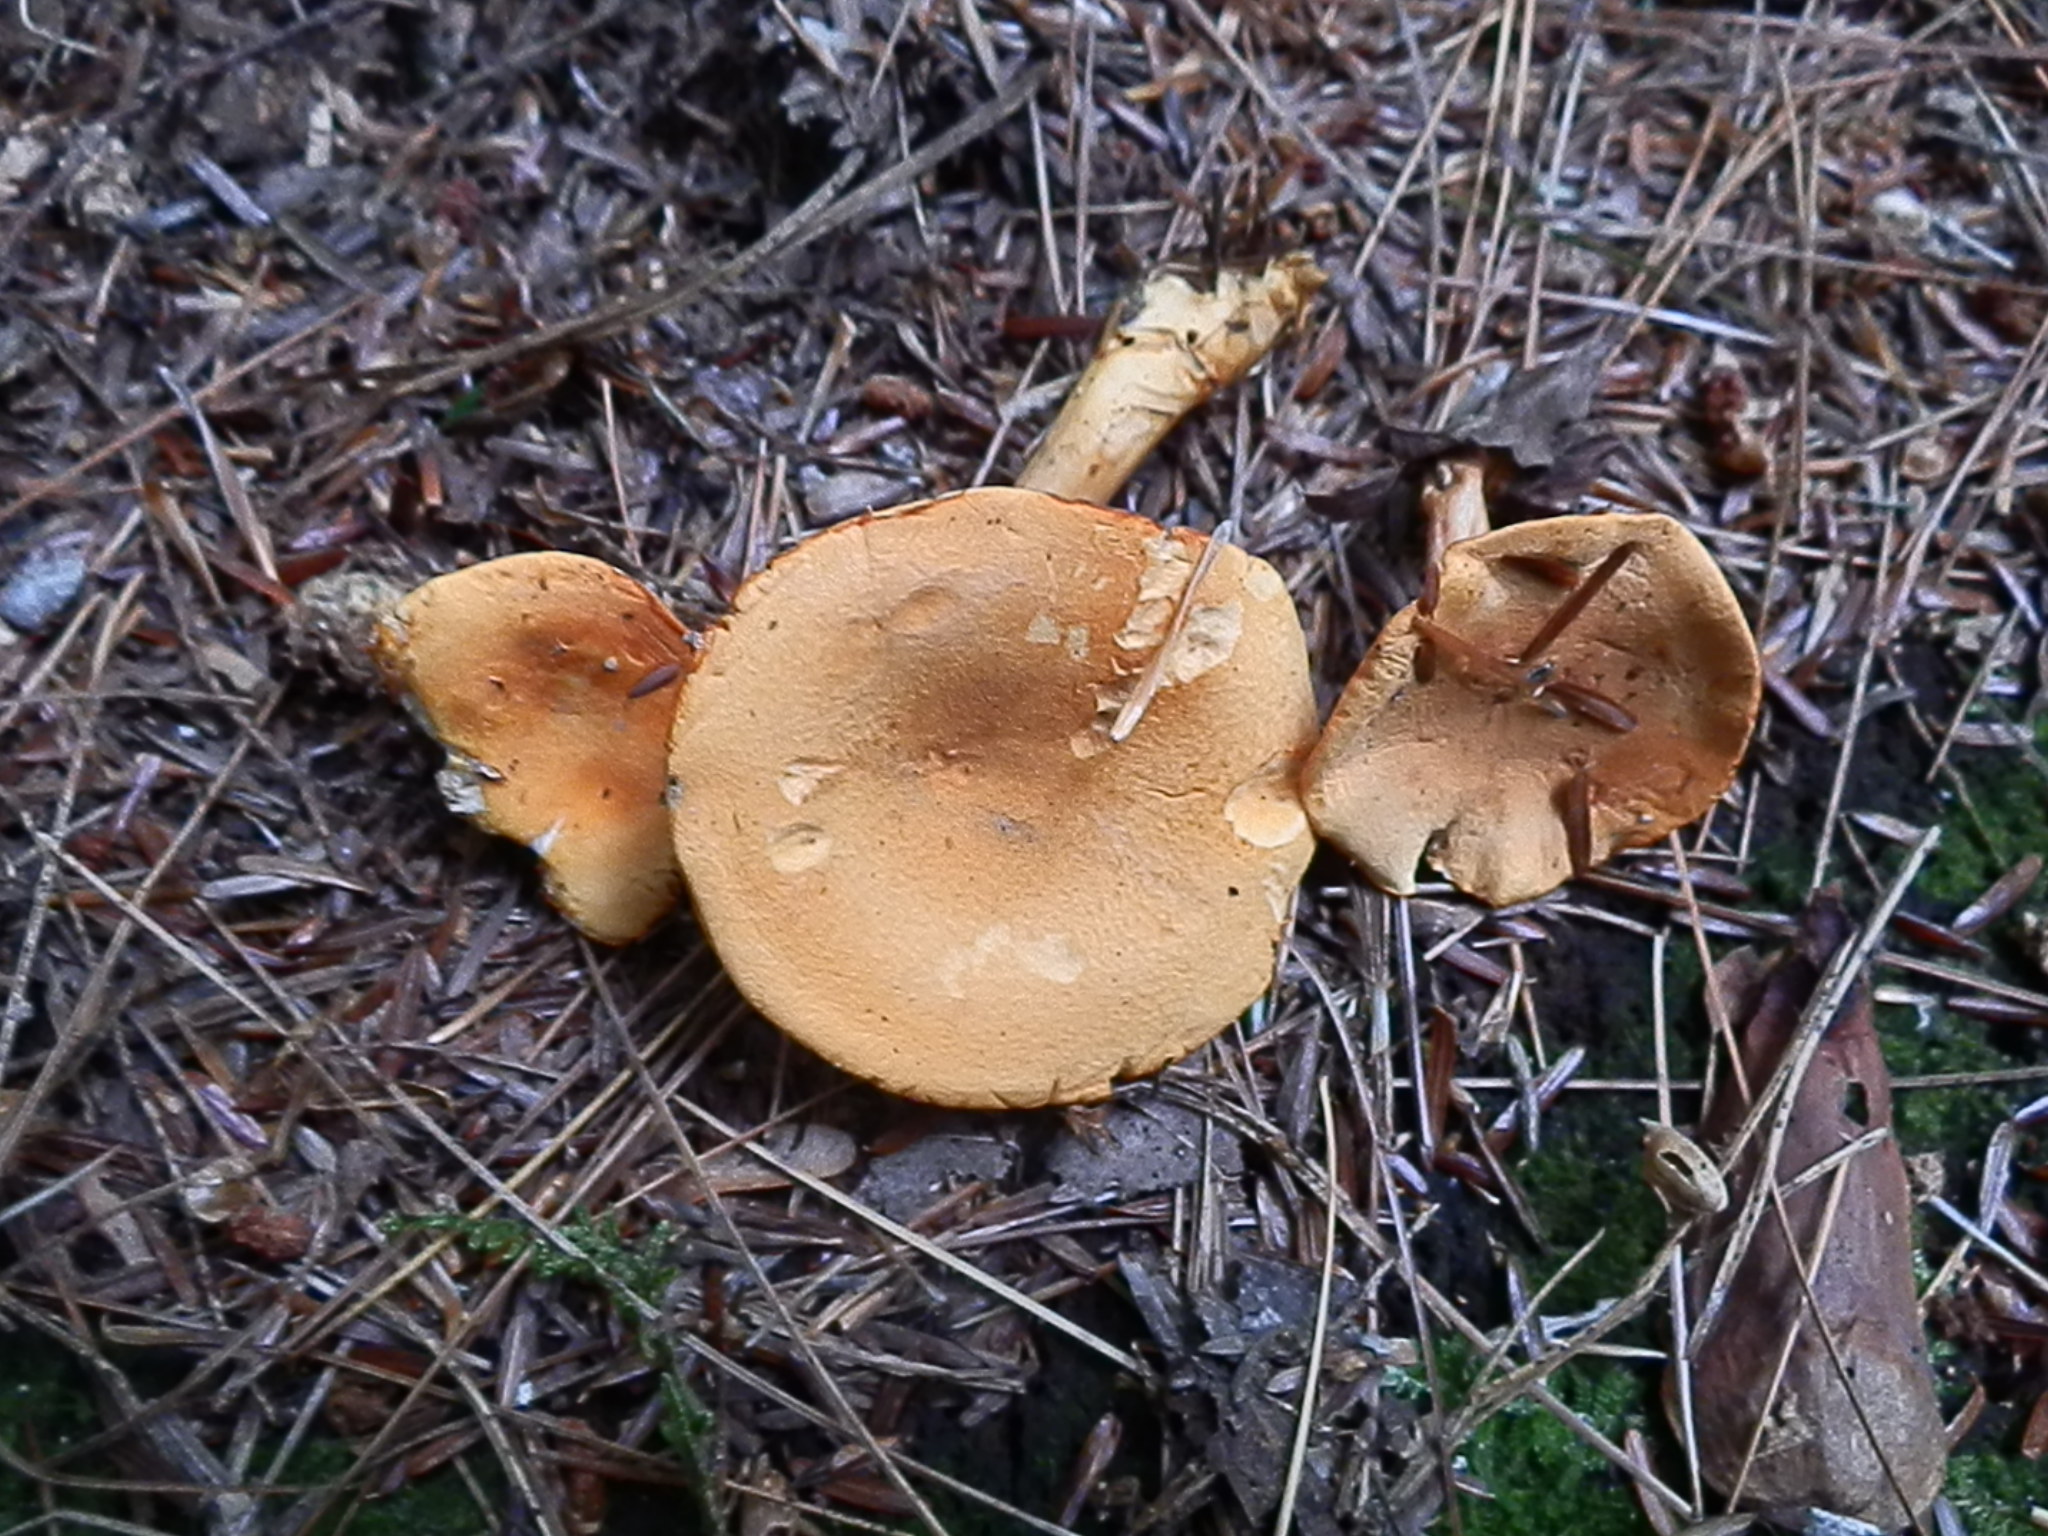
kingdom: Fungi
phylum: Basidiomycota
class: Agaricomycetes
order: Boletales
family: Hygrophoropsidaceae
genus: Hygrophoropsis
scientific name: Hygrophoropsis aurantiaca
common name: False chanterelle
